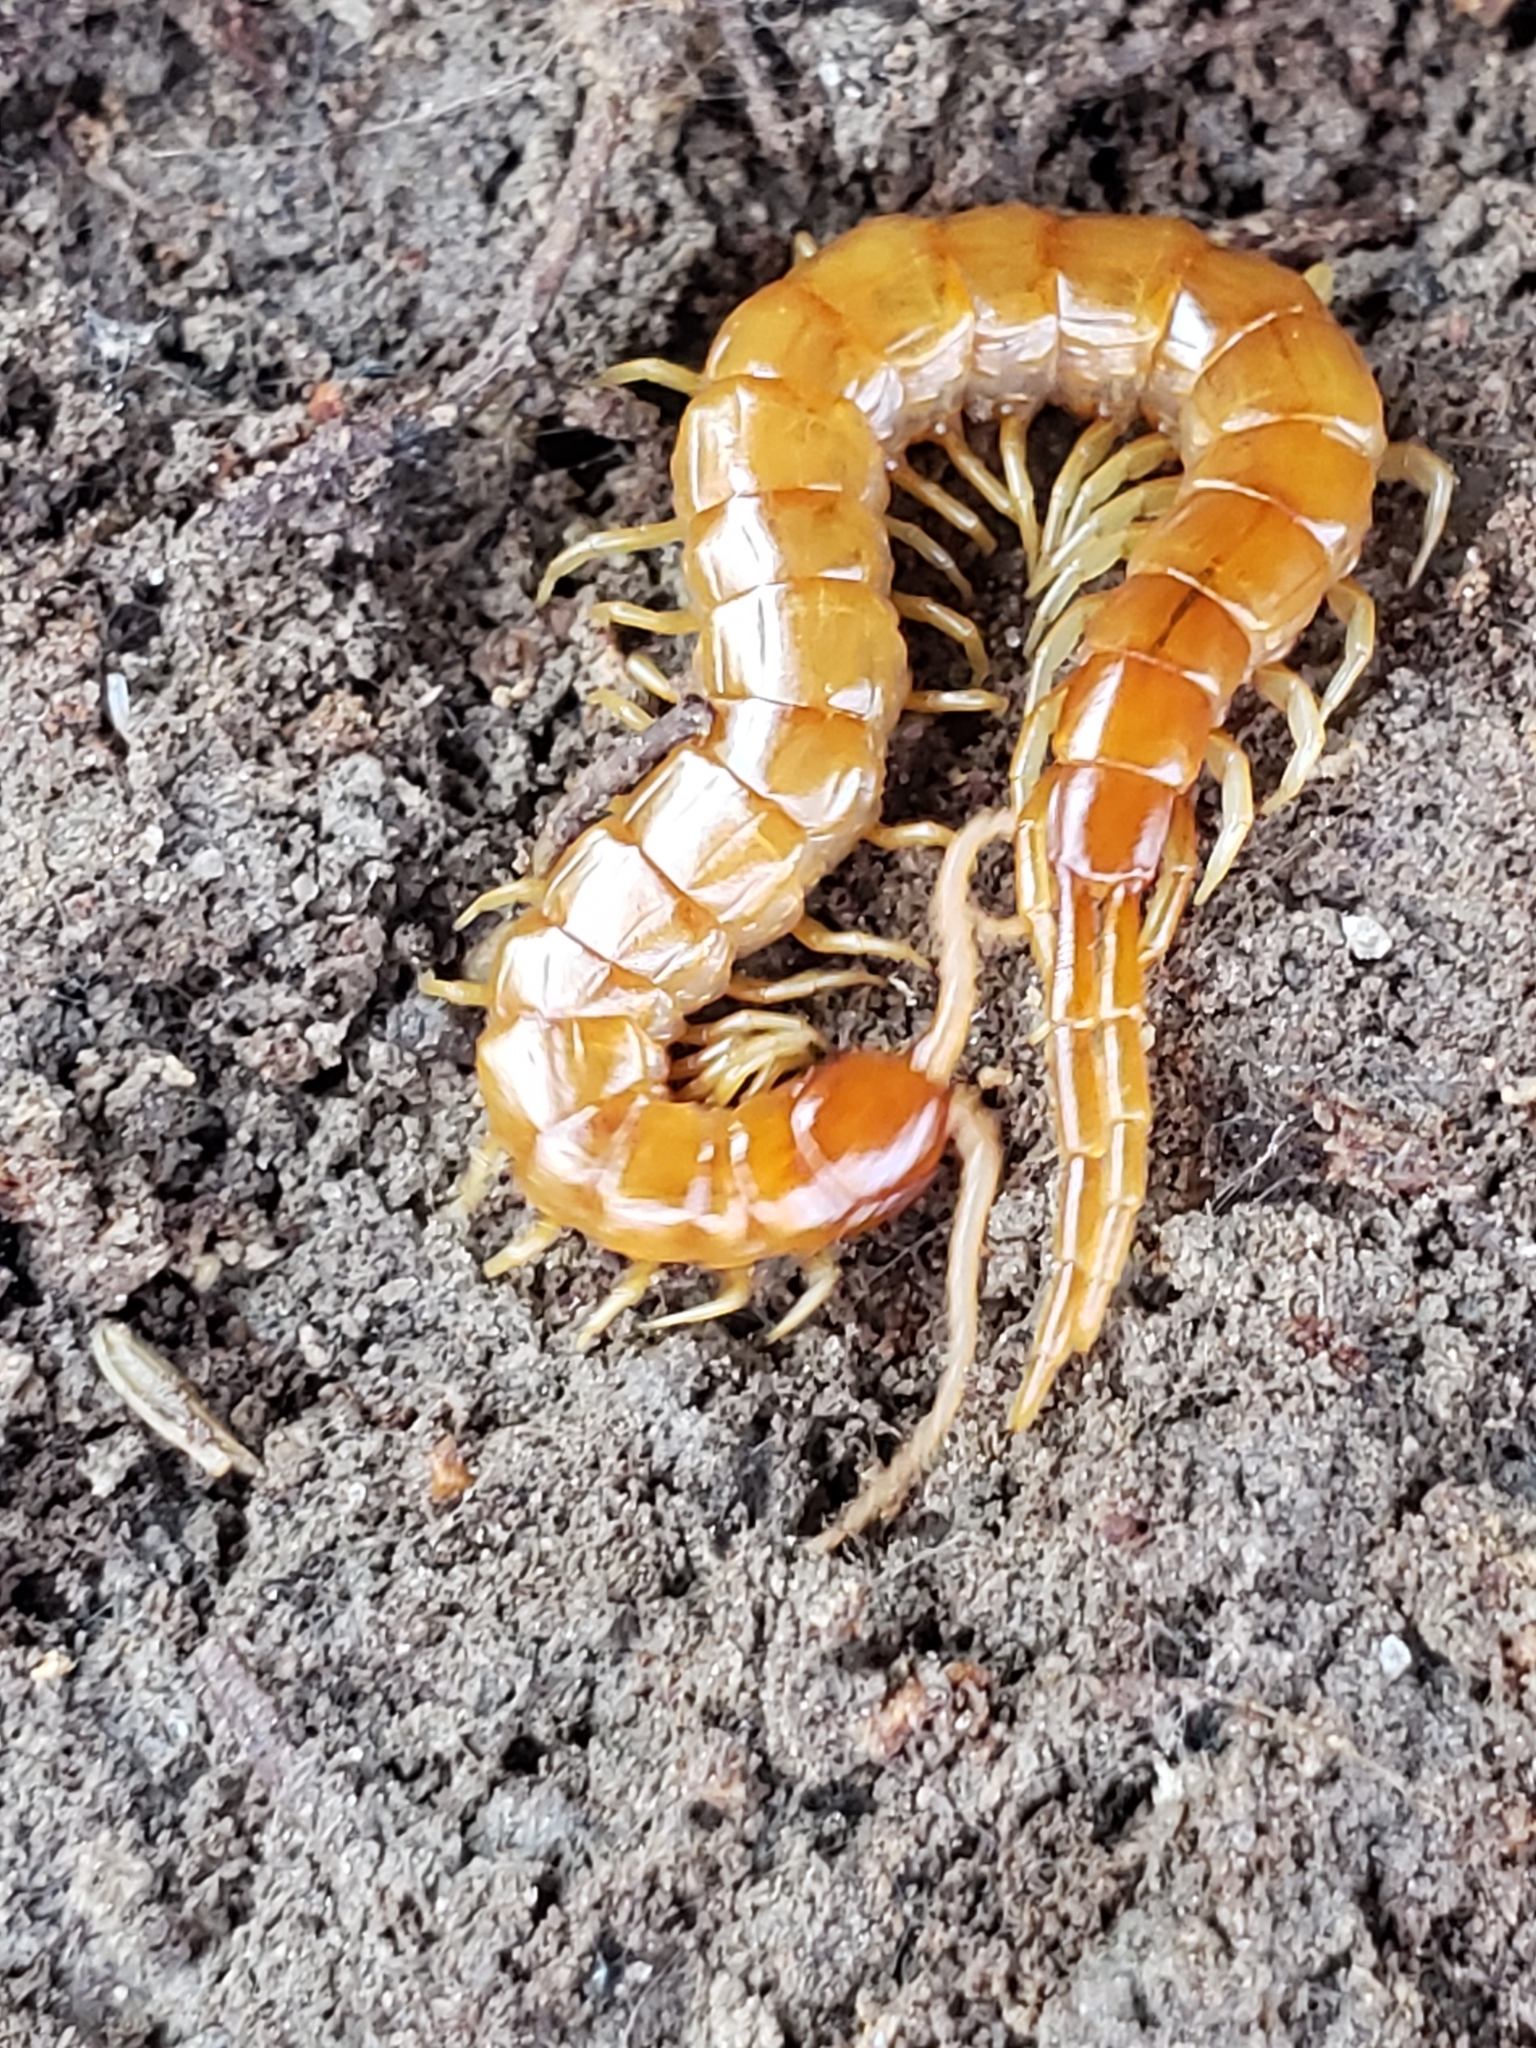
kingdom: Animalia
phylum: Arthropoda
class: Chilopoda
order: Scolopendromorpha
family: Scolopocryptopidae
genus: Scolopocryptops
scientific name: Scolopocryptops peregrinator
